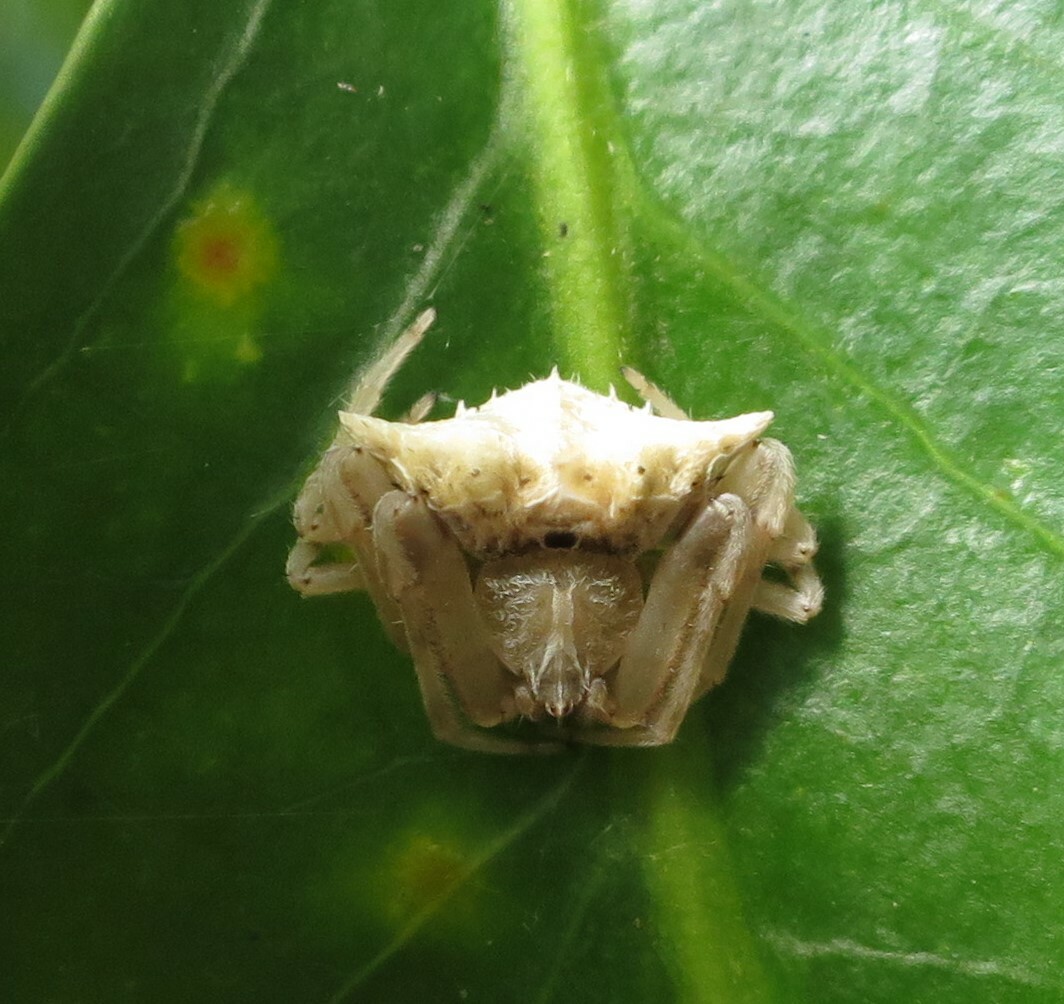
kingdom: Animalia
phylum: Arthropoda
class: Arachnida
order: Araneae
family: Araneidae
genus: Celaenia
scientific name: Celaenia penna
